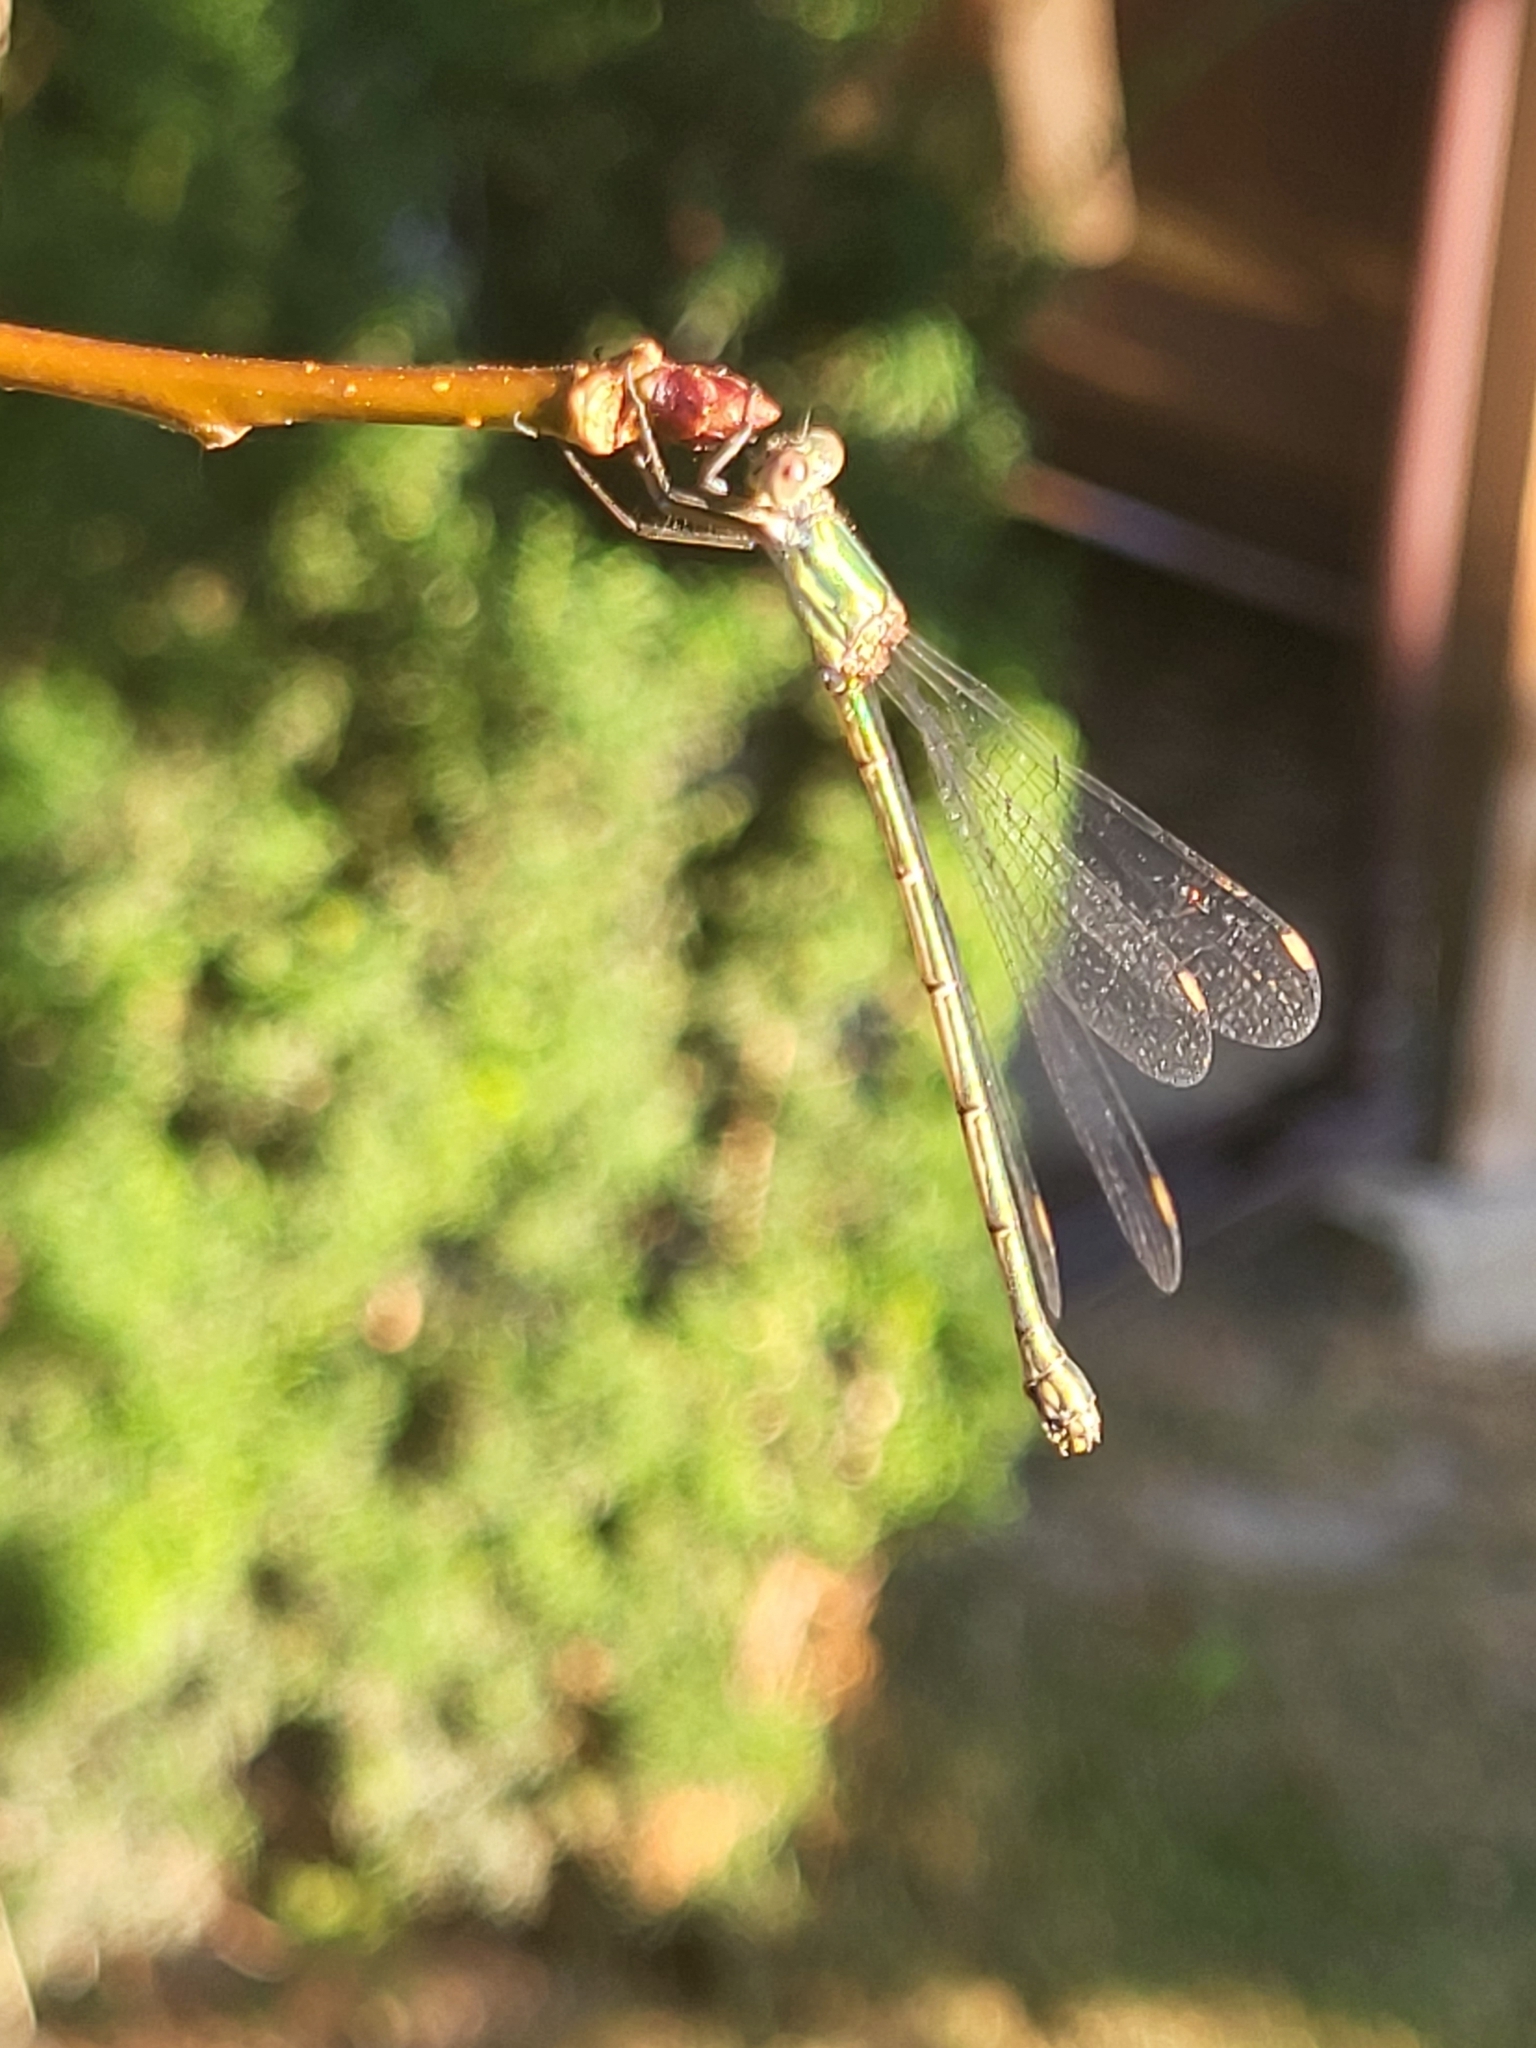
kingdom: Animalia
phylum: Arthropoda
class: Insecta
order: Odonata
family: Lestidae
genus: Chalcolestes
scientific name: Chalcolestes viridis
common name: Green emerald damselfly
